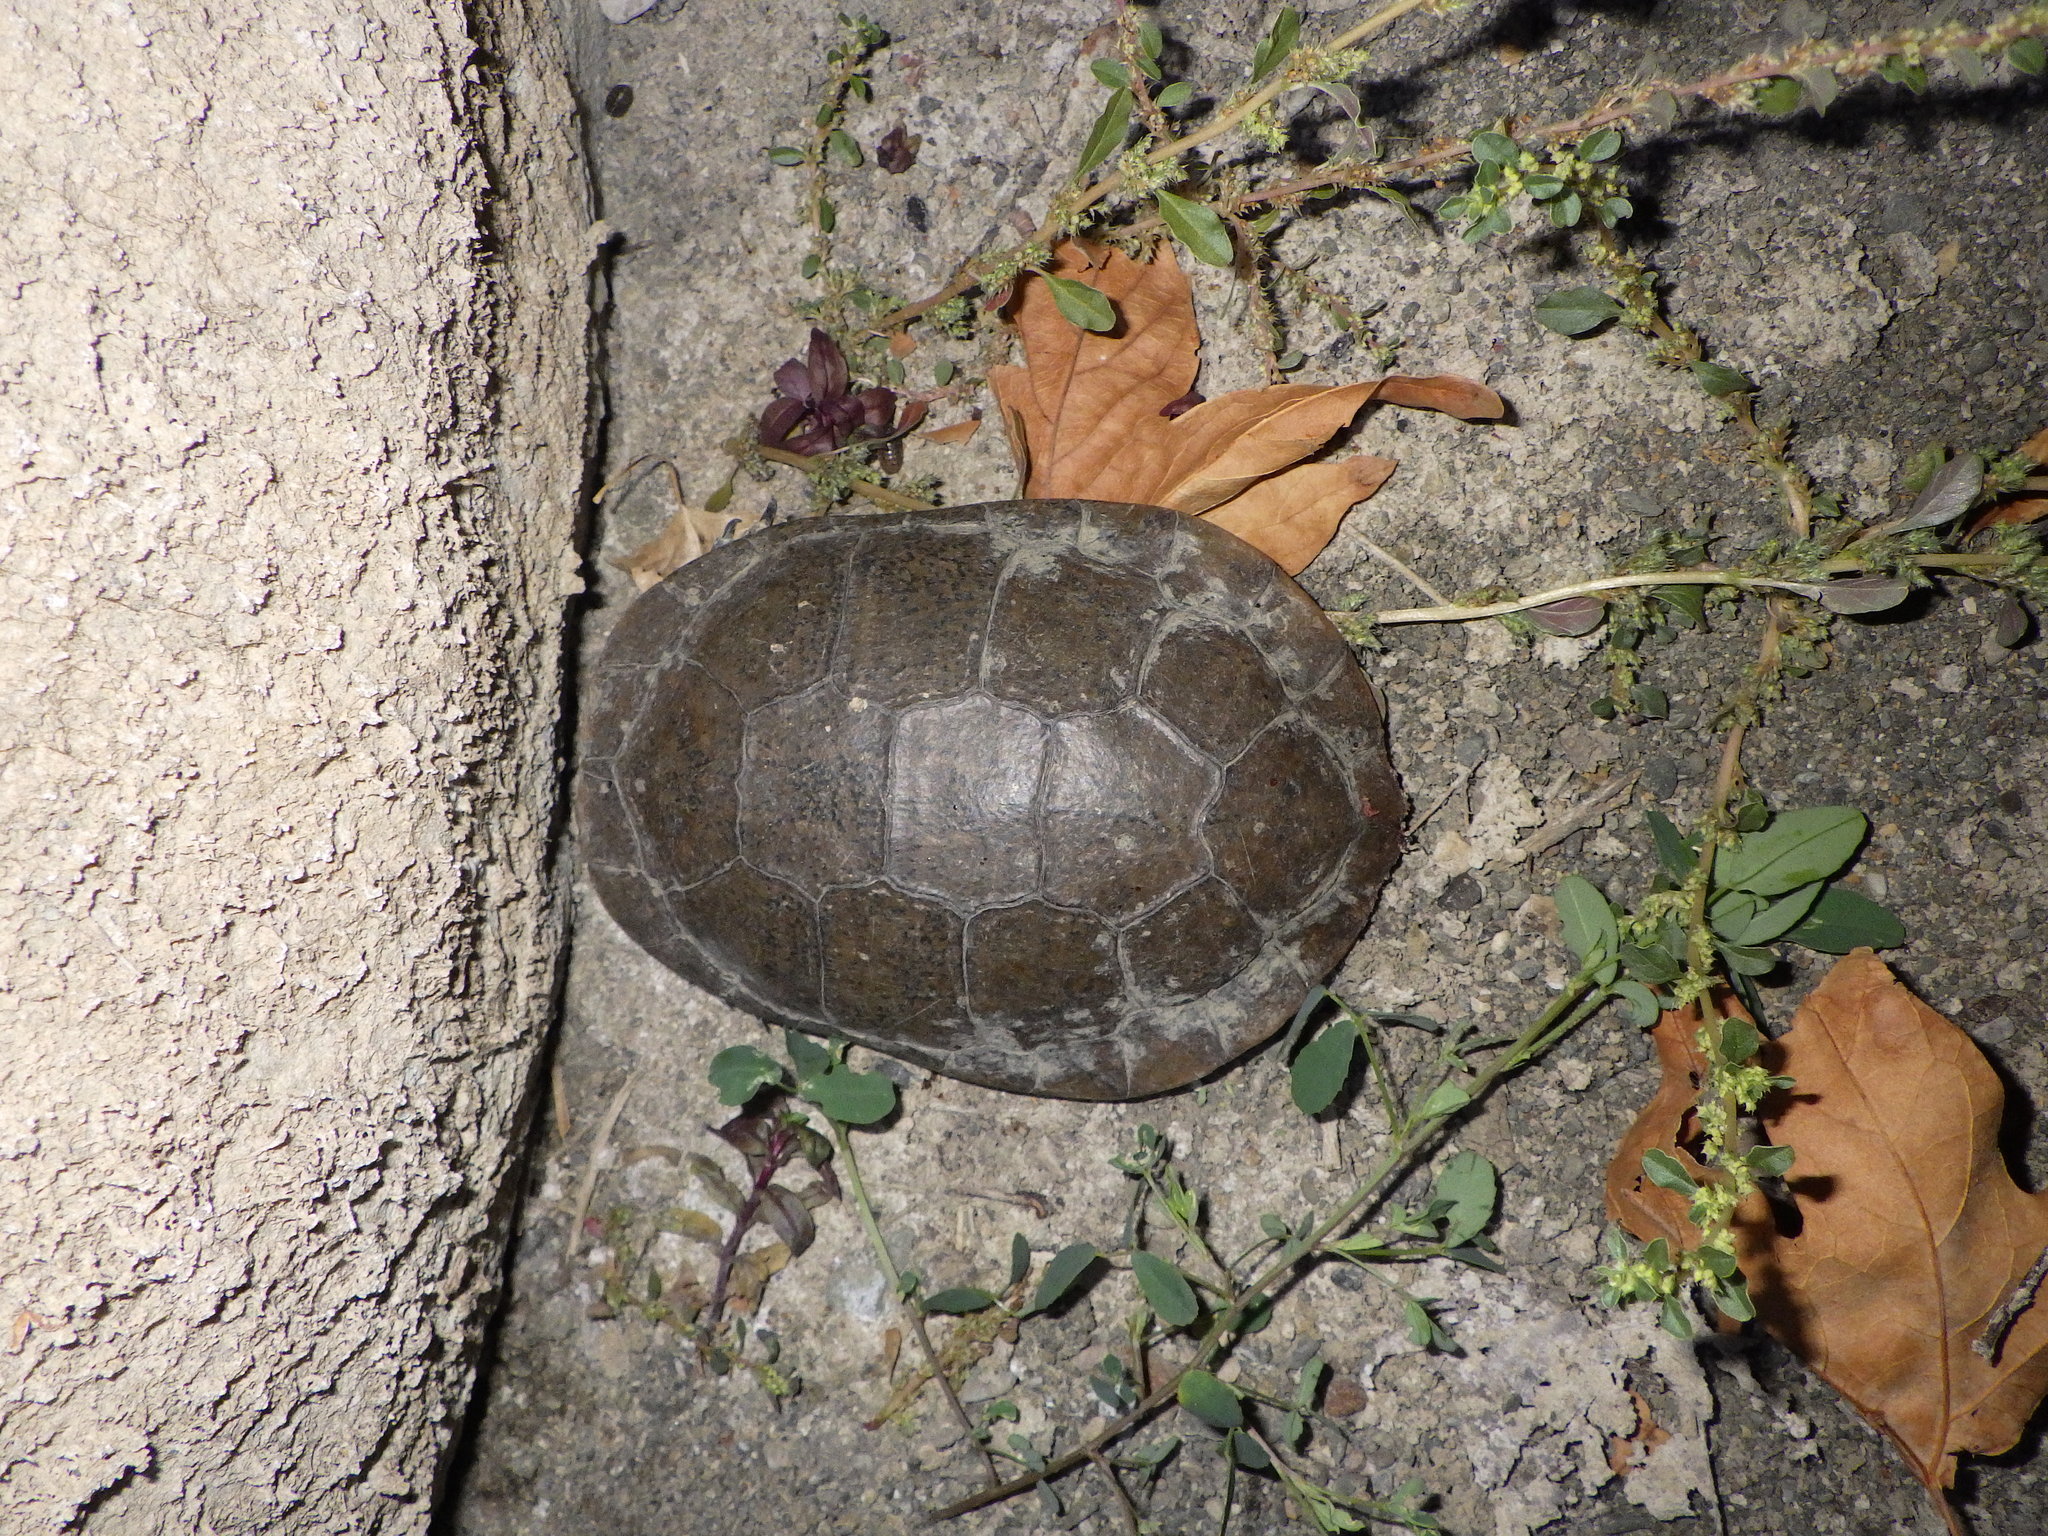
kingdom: Animalia
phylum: Chordata
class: Testudines
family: Emydidae
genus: Actinemys
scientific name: Actinemys marmorata
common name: Western pond turtle
